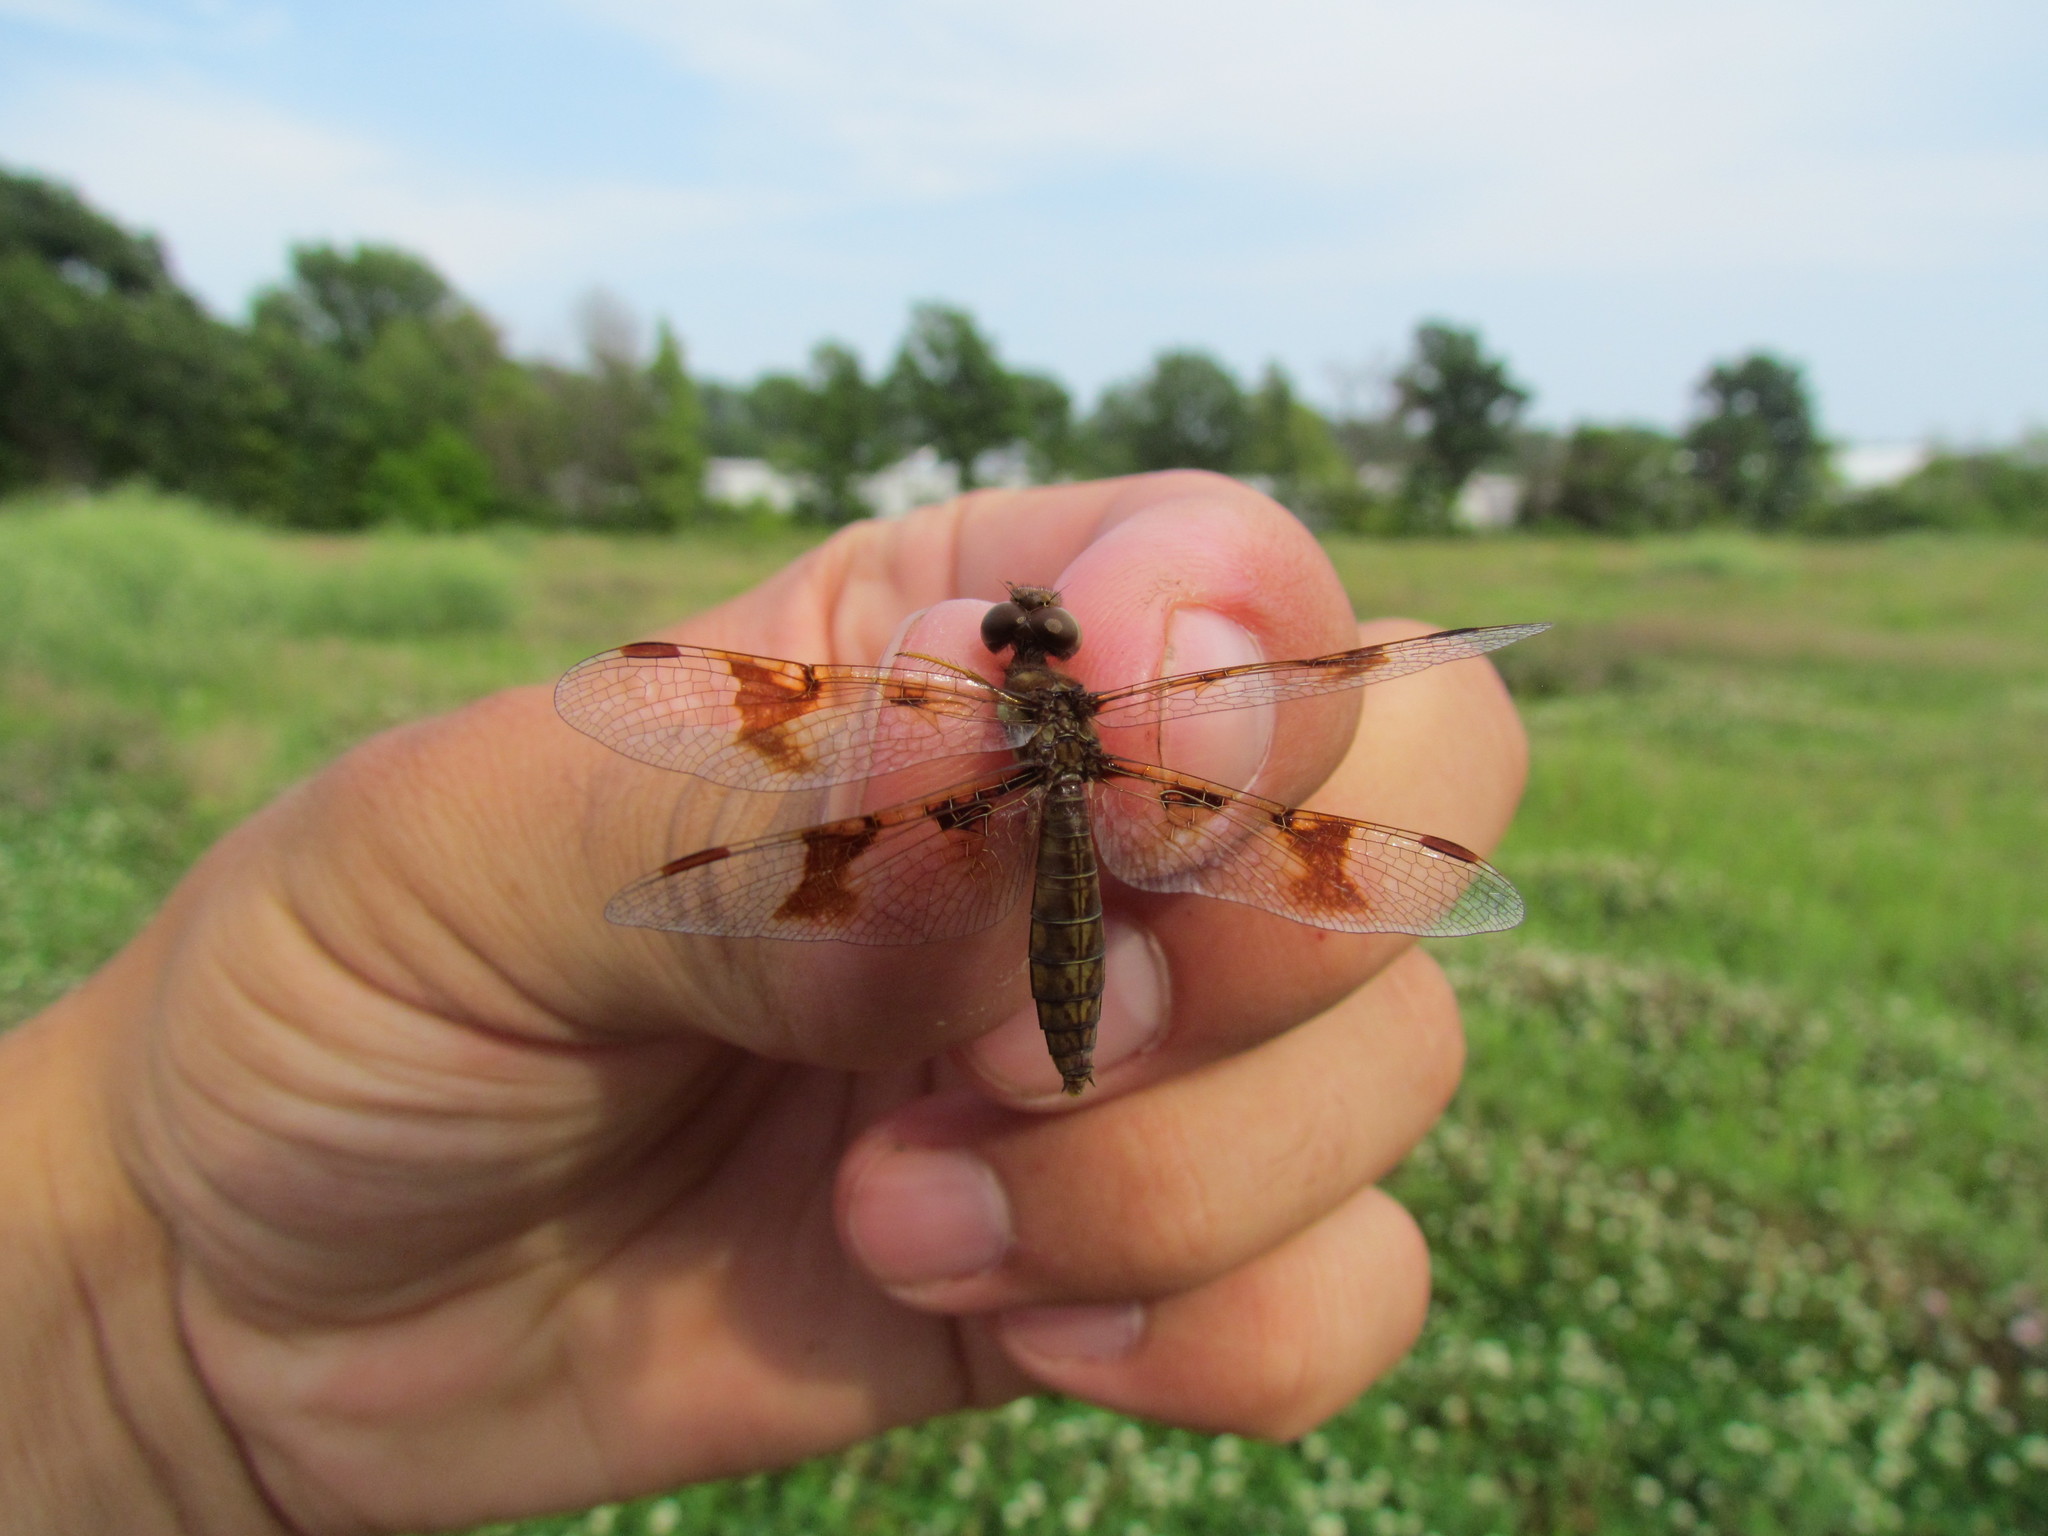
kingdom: Animalia
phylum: Arthropoda
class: Insecta
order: Odonata
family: Libellulidae
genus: Perithemis
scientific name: Perithemis tenera
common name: Eastern amberwing
